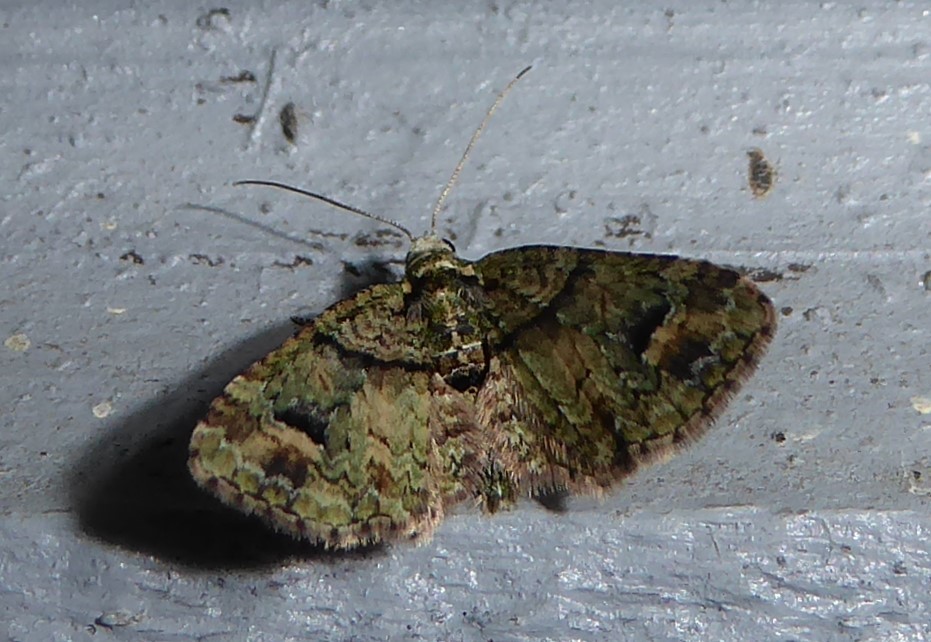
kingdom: Animalia
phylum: Arthropoda
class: Insecta
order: Lepidoptera
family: Geometridae
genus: Idaea
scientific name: Idaea mutanda
